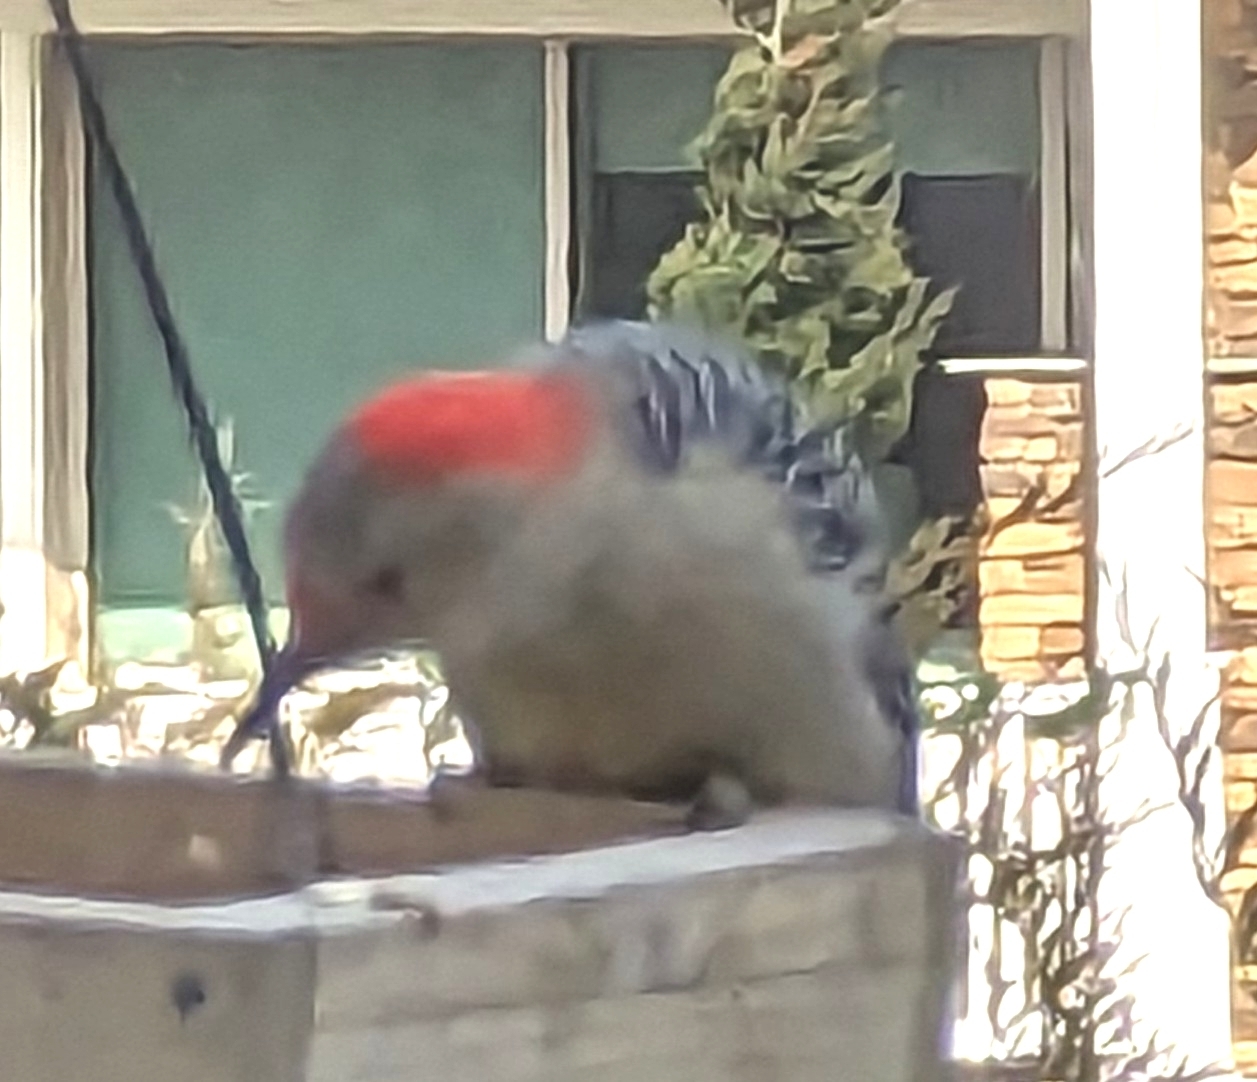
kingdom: Animalia
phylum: Chordata
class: Aves
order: Piciformes
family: Picidae
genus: Melanerpes
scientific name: Melanerpes carolinus
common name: Red-bellied woodpecker
